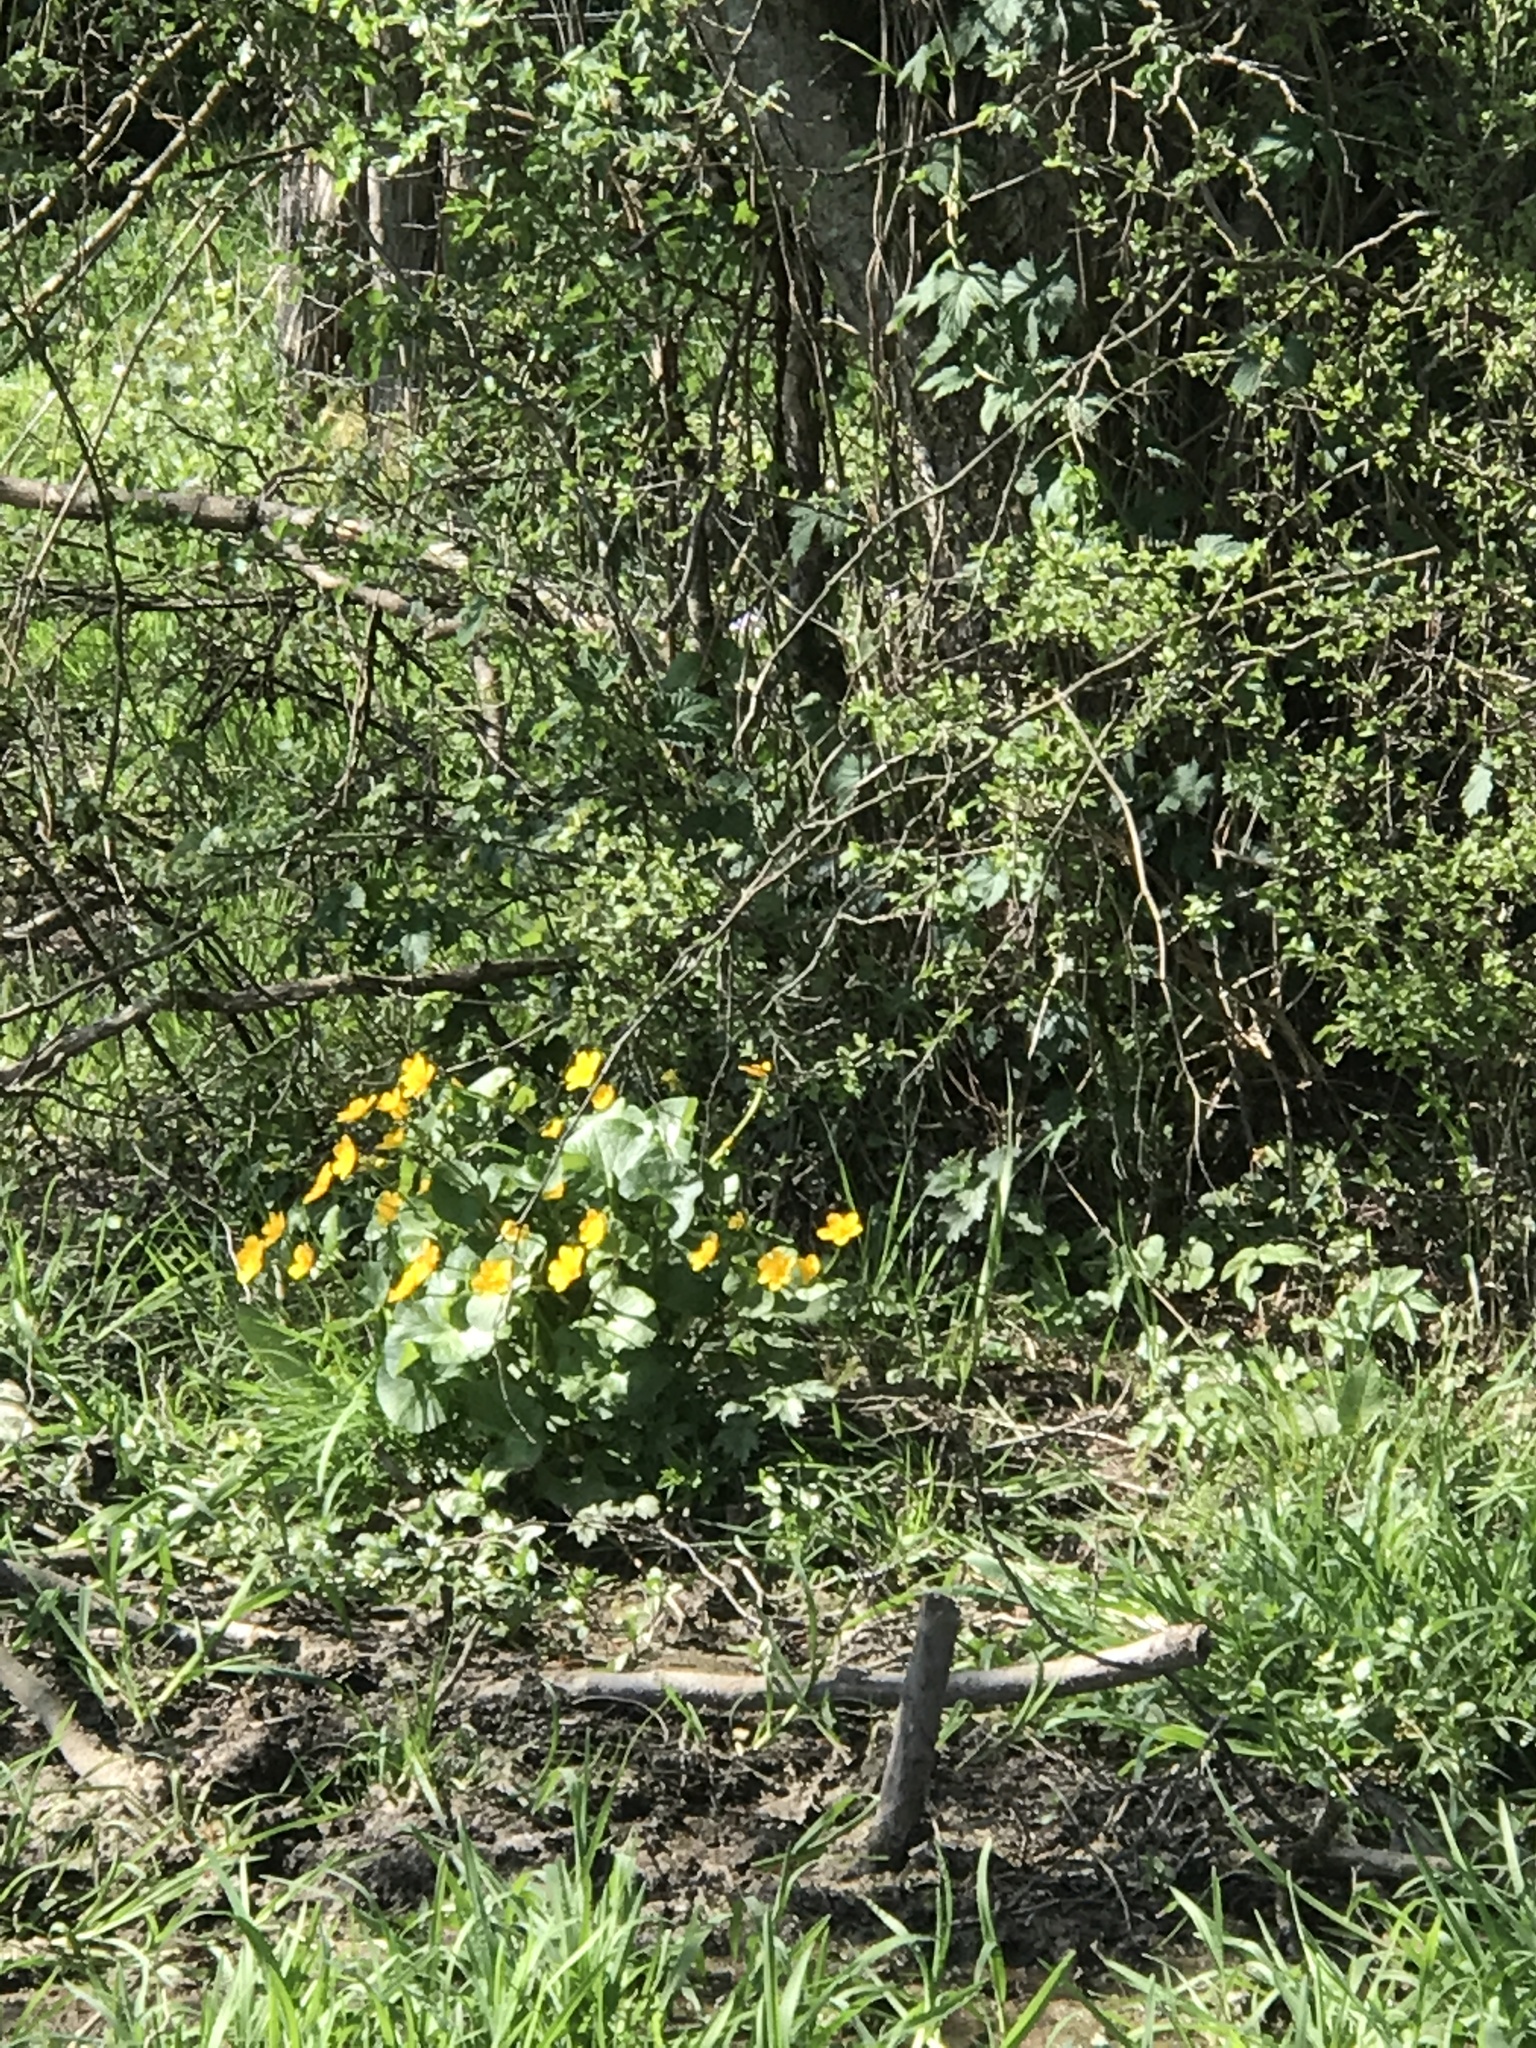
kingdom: Plantae
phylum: Tracheophyta
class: Magnoliopsida
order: Ranunculales
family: Ranunculaceae
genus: Caltha
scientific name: Caltha palustris
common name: Marsh marigold
